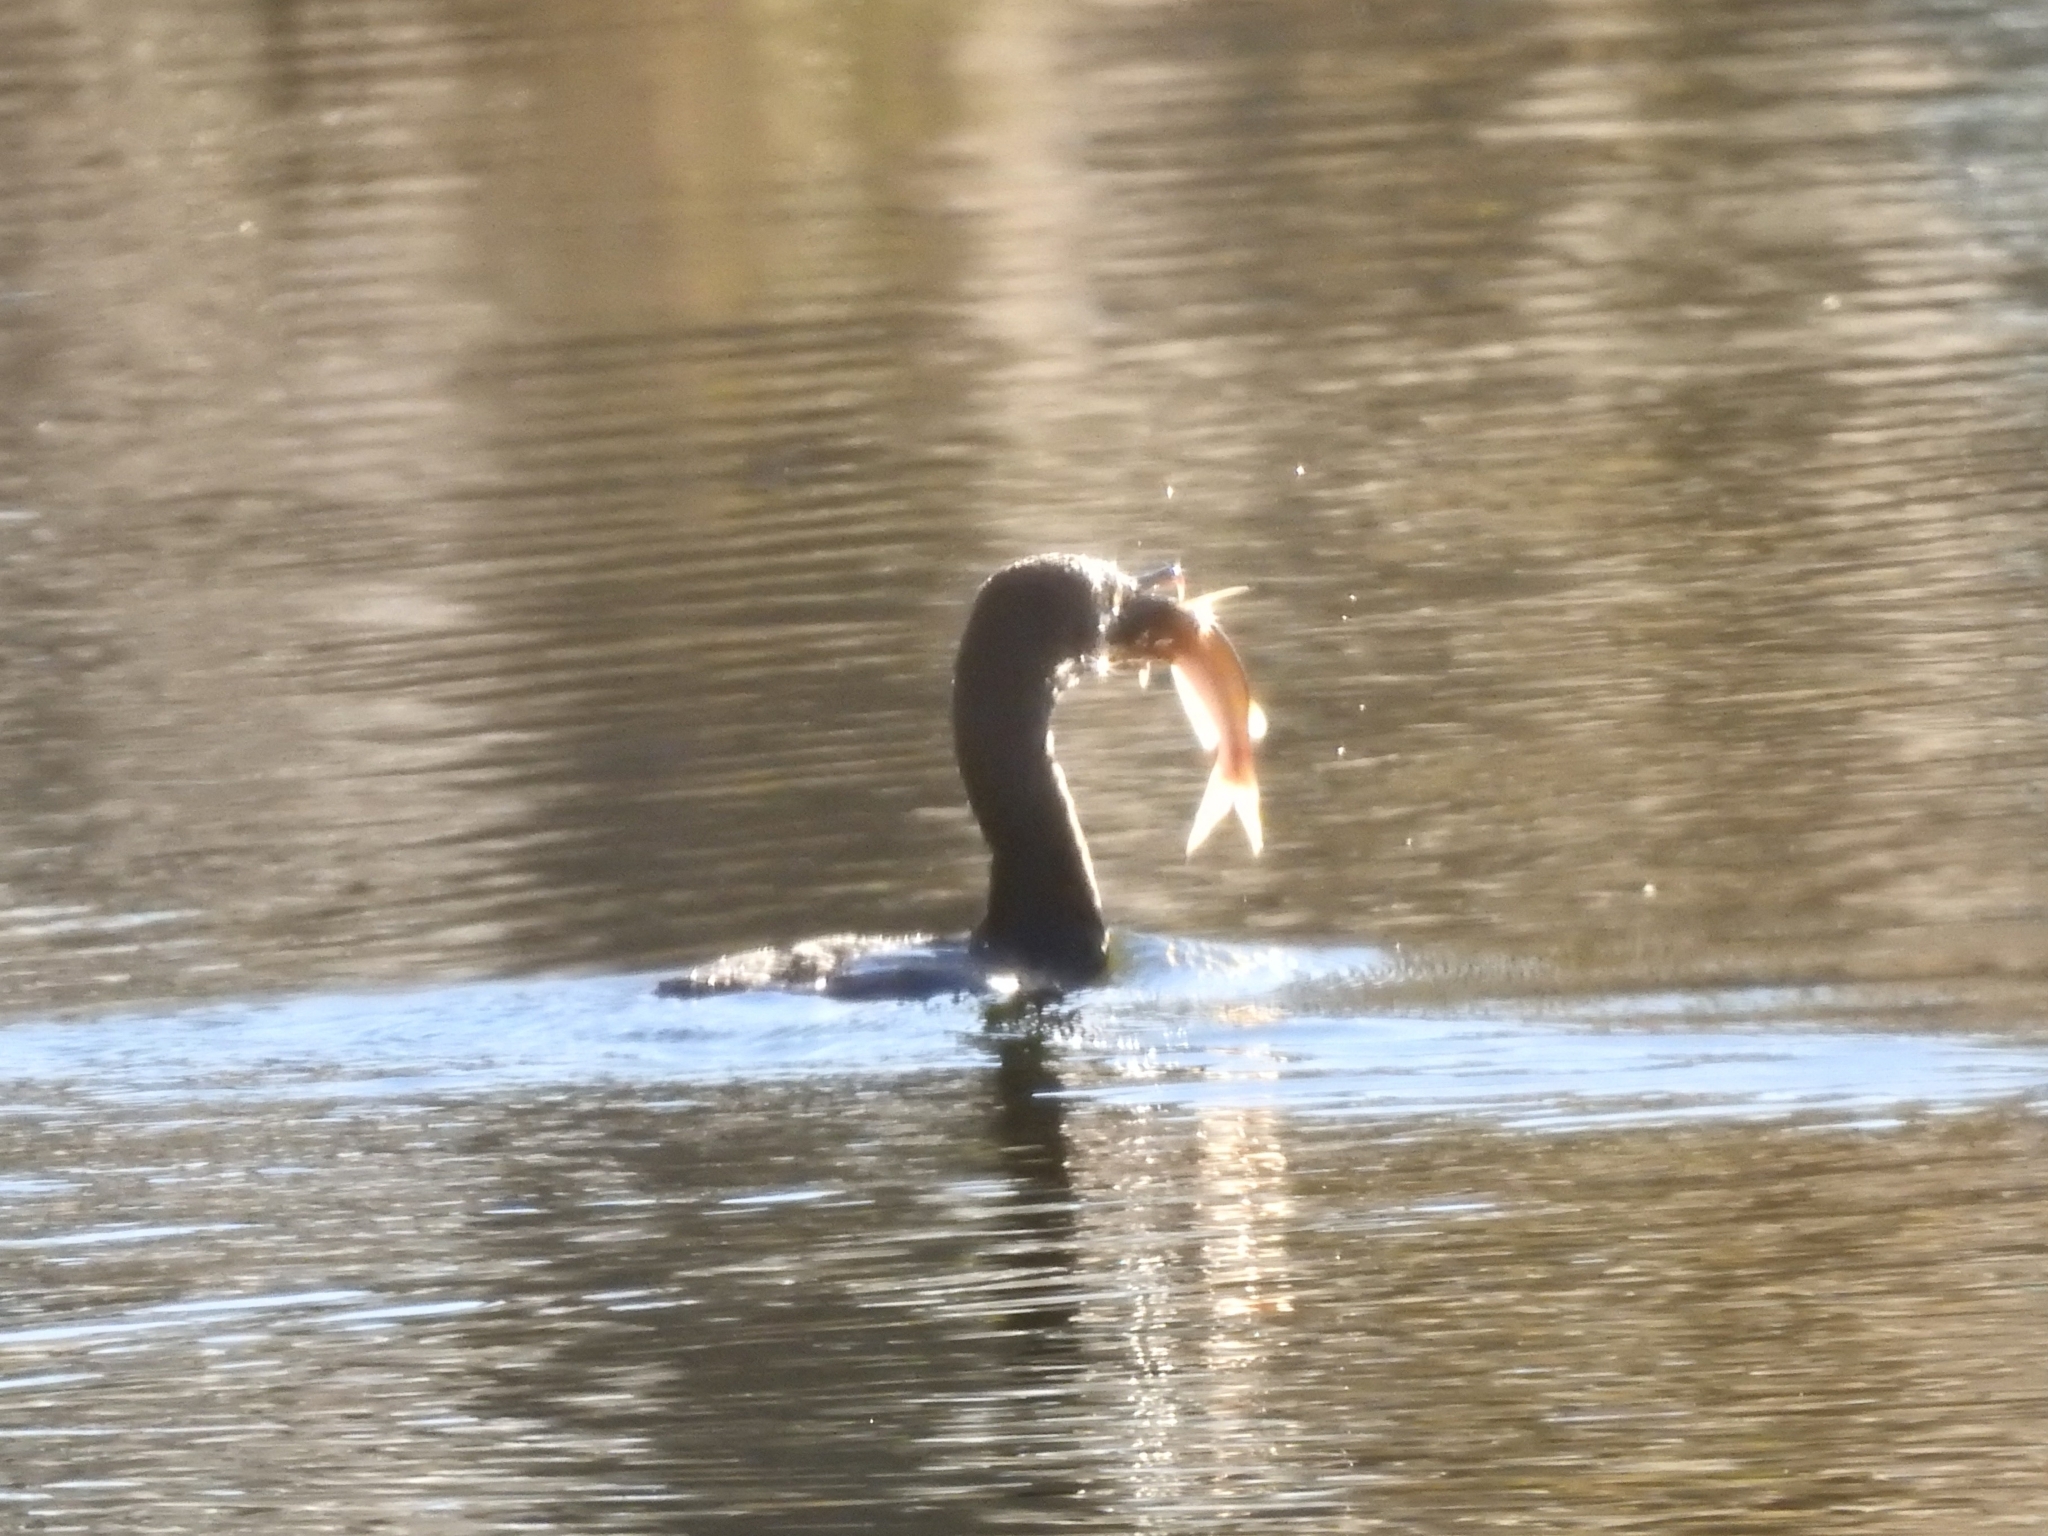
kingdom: Animalia
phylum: Chordata
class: Aves
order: Suliformes
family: Phalacrocoracidae
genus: Phalacrocorax
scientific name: Phalacrocorax auritus
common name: Double-crested cormorant
